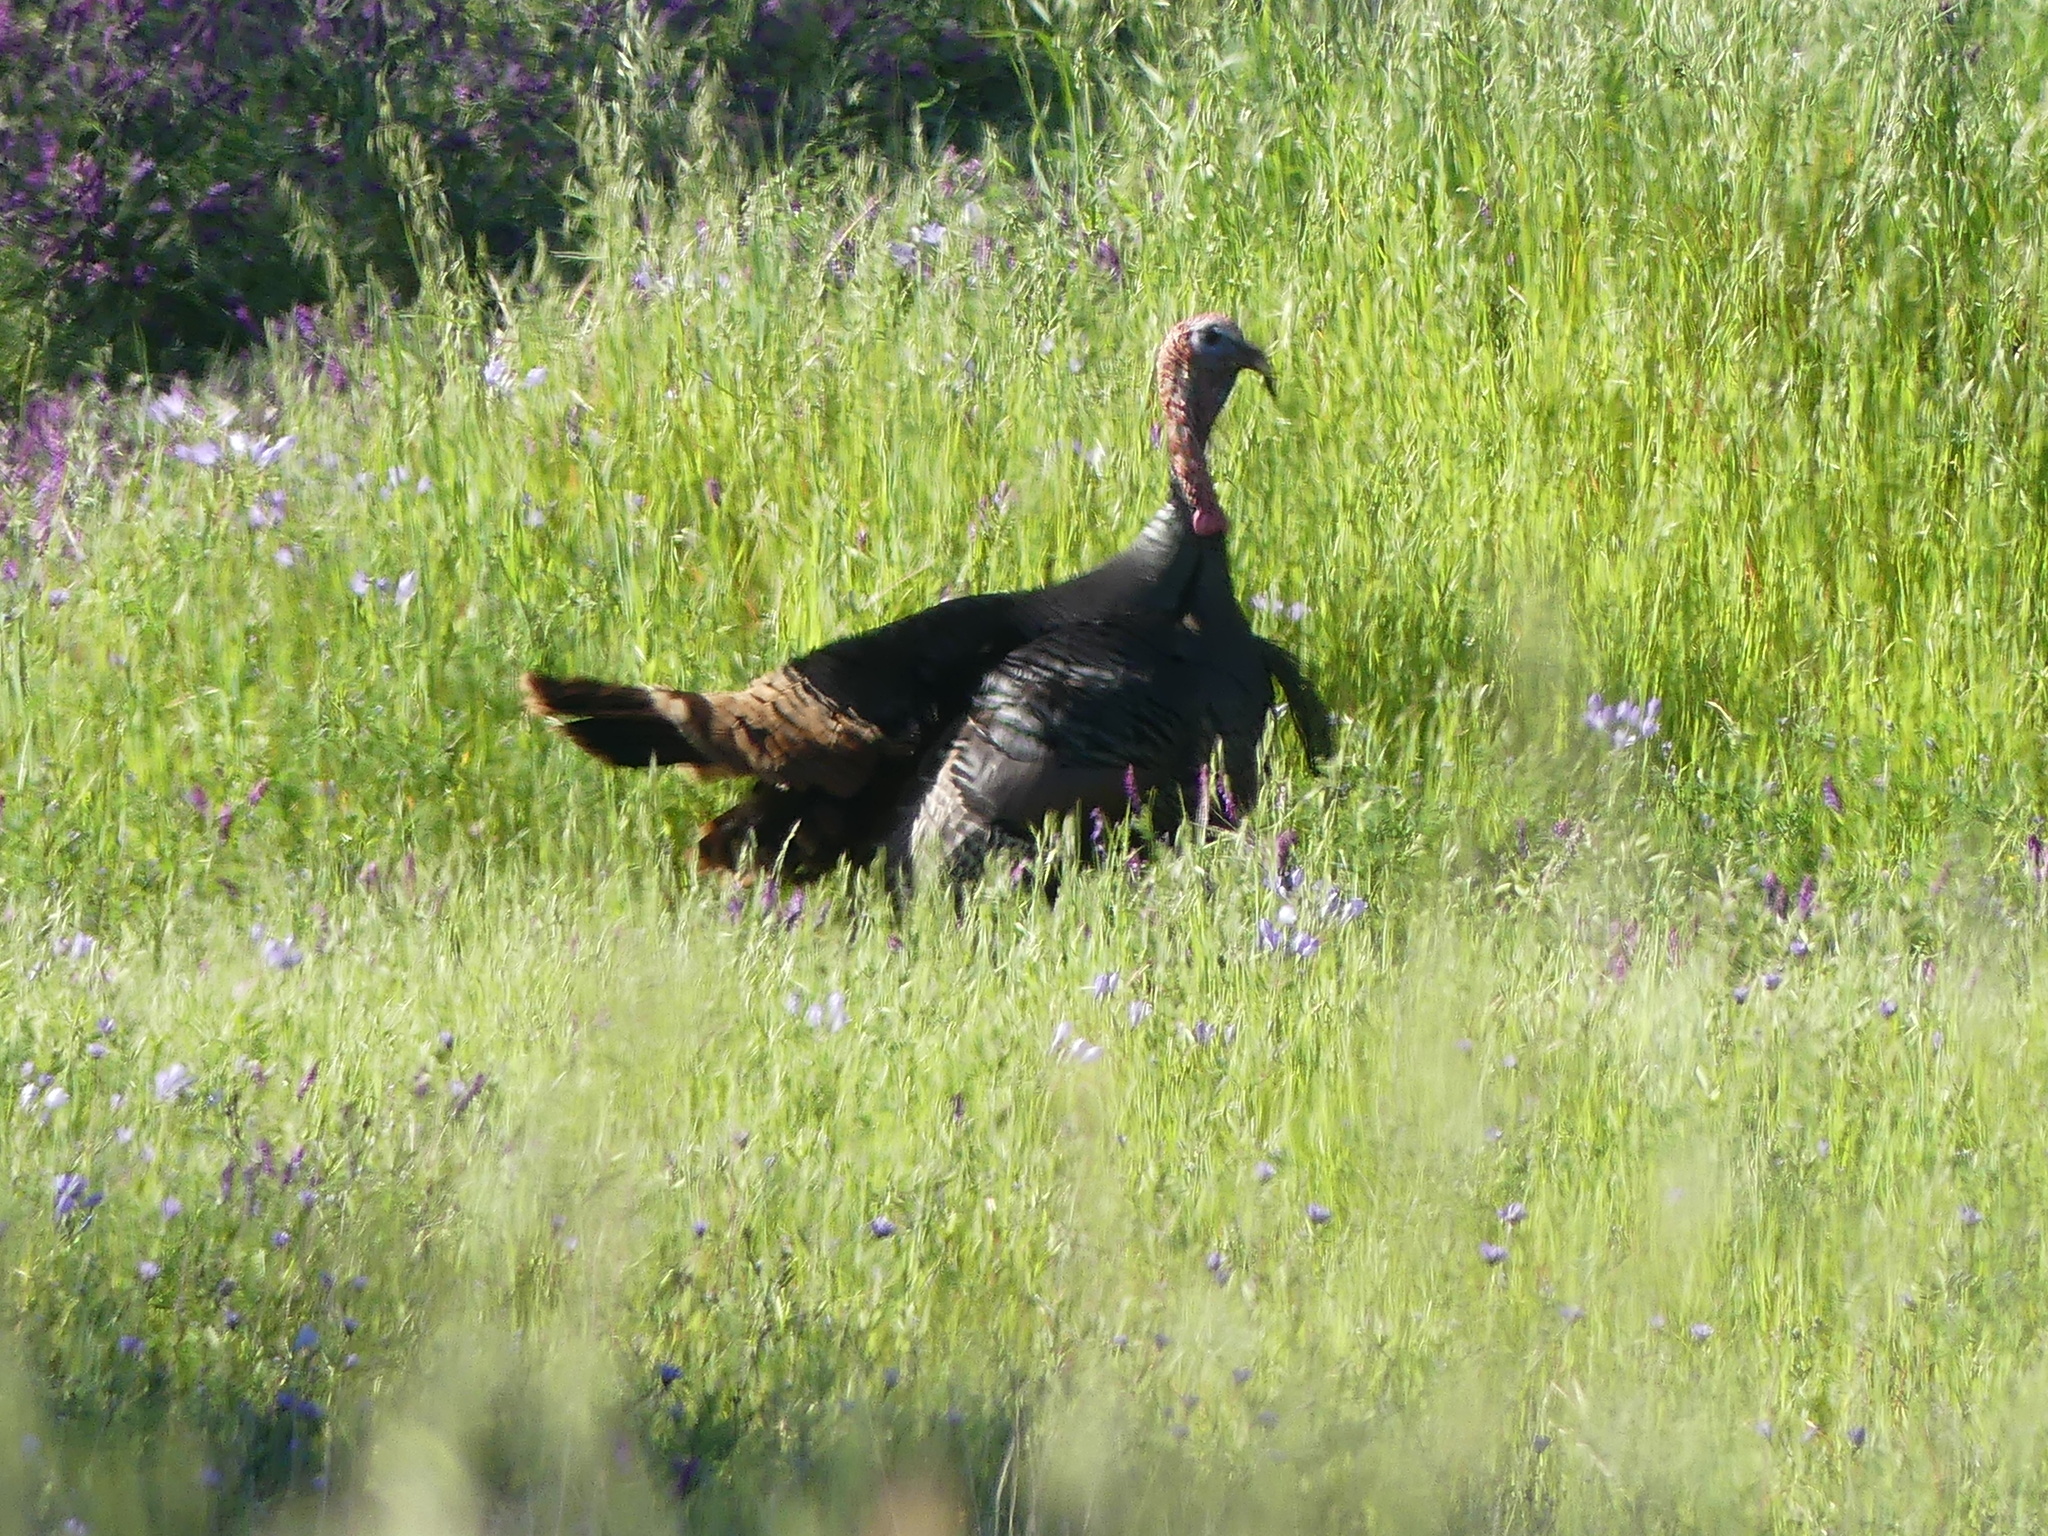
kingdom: Animalia
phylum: Chordata
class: Aves
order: Galliformes
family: Phasianidae
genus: Meleagris
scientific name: Meleagris gallopavo
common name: Wild turkey
